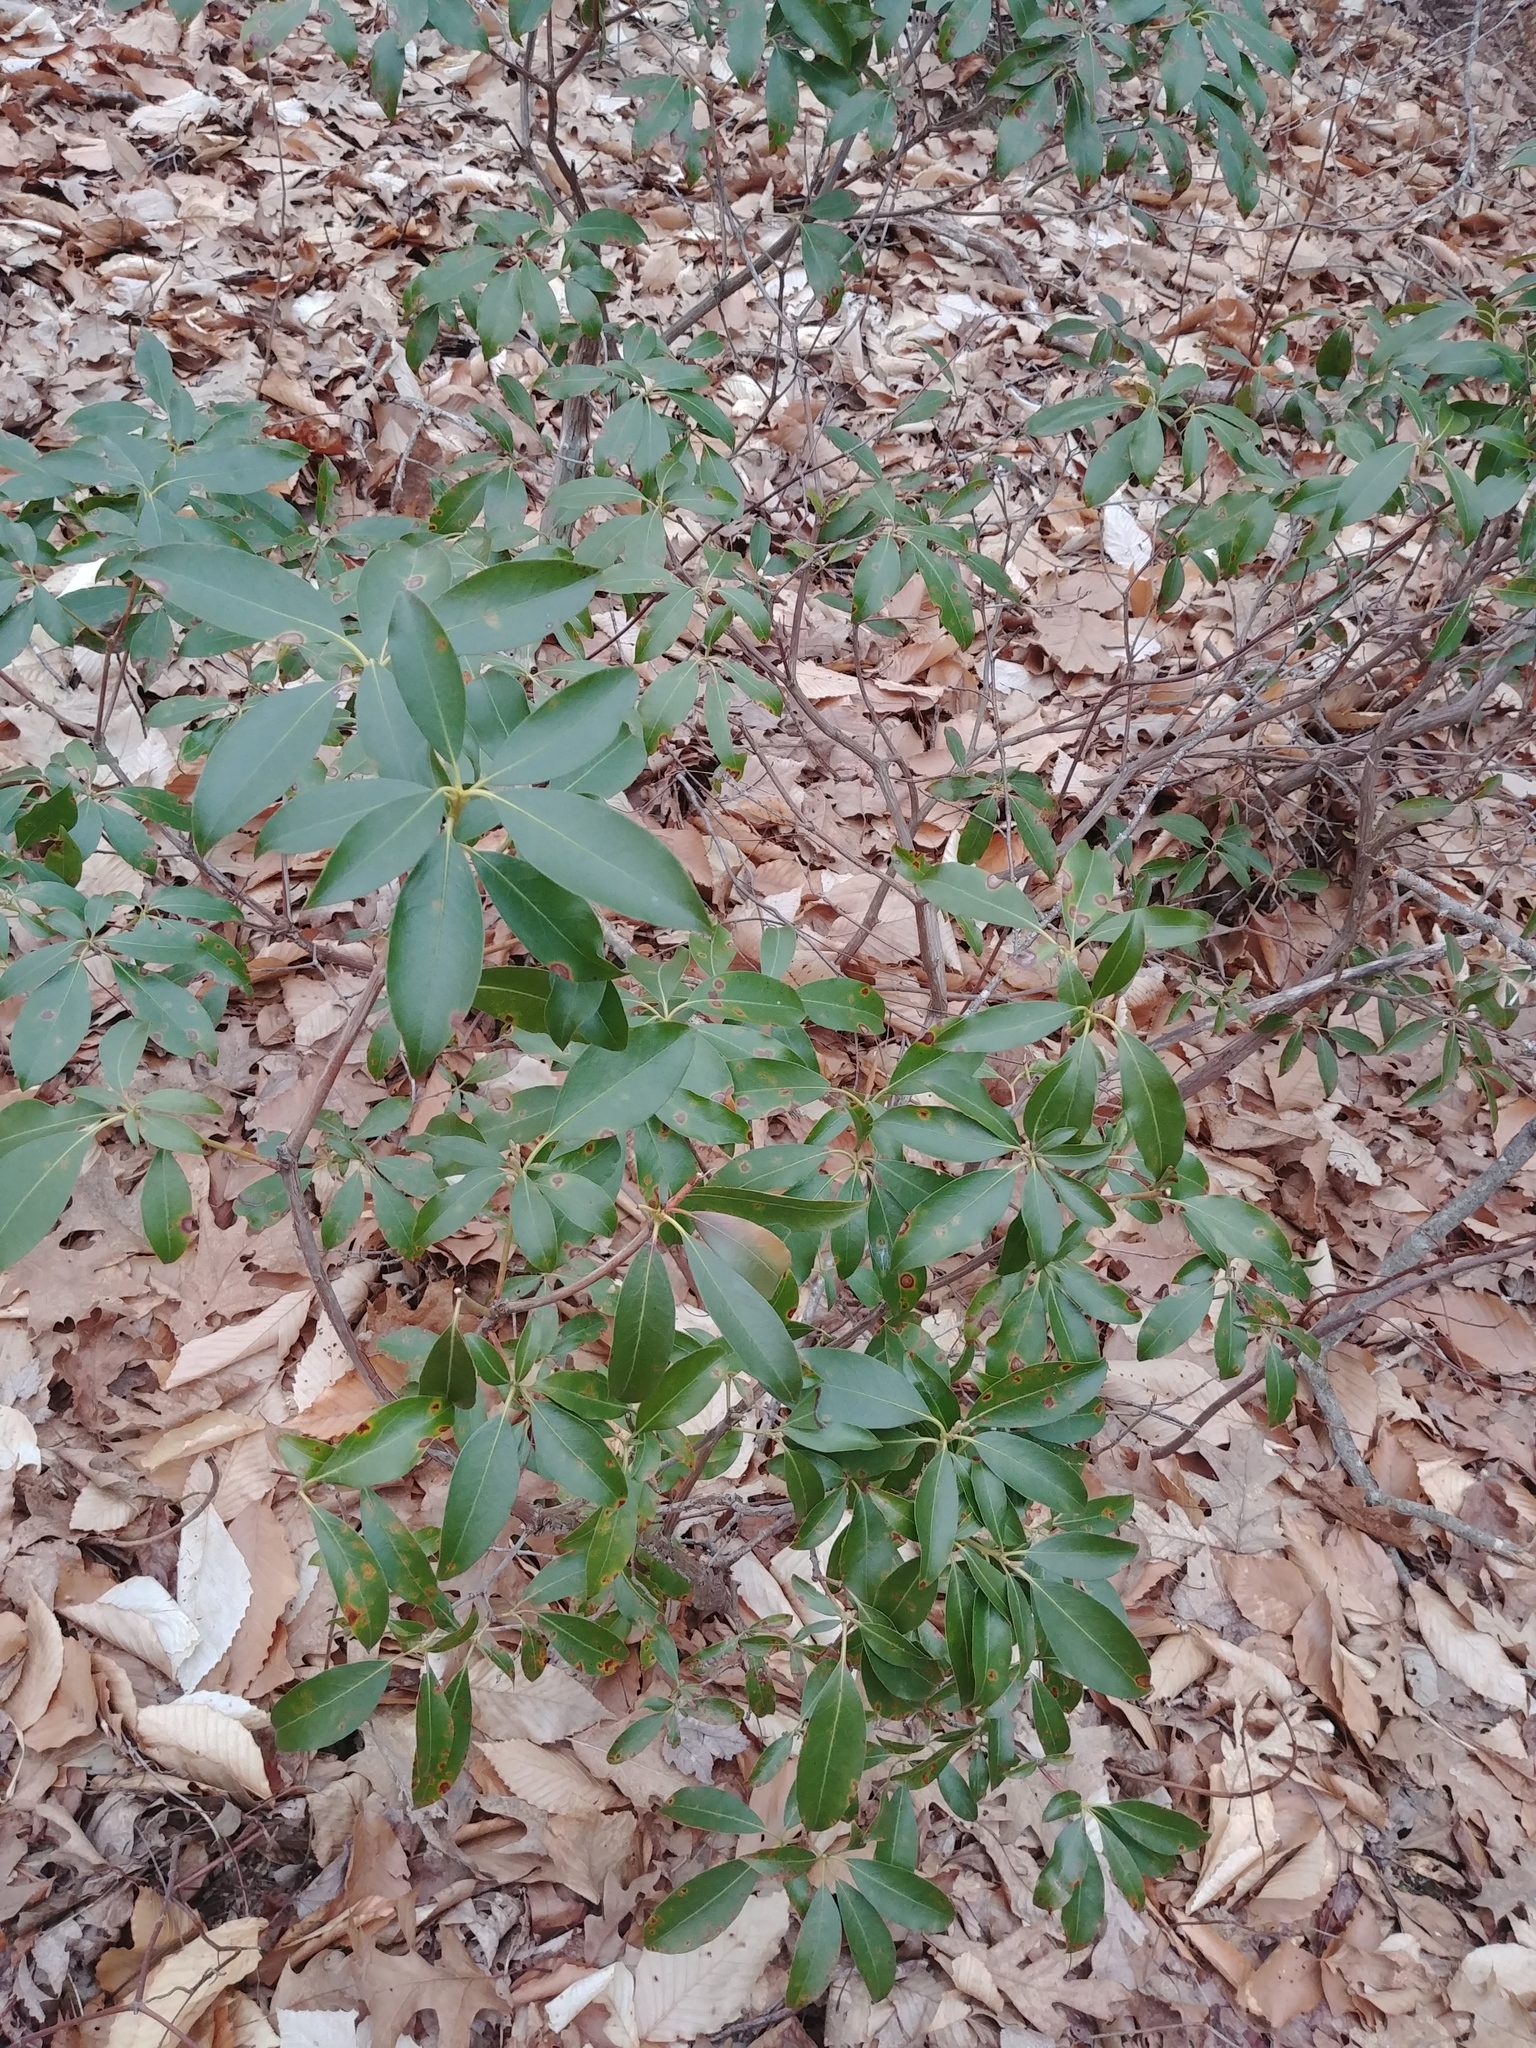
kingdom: Plantae
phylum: Tracheophyta
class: Magnoliopsida
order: Ericales
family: Ericaceae
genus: Kalmia
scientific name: Kalmia latifolia
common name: Mountain-laurel
